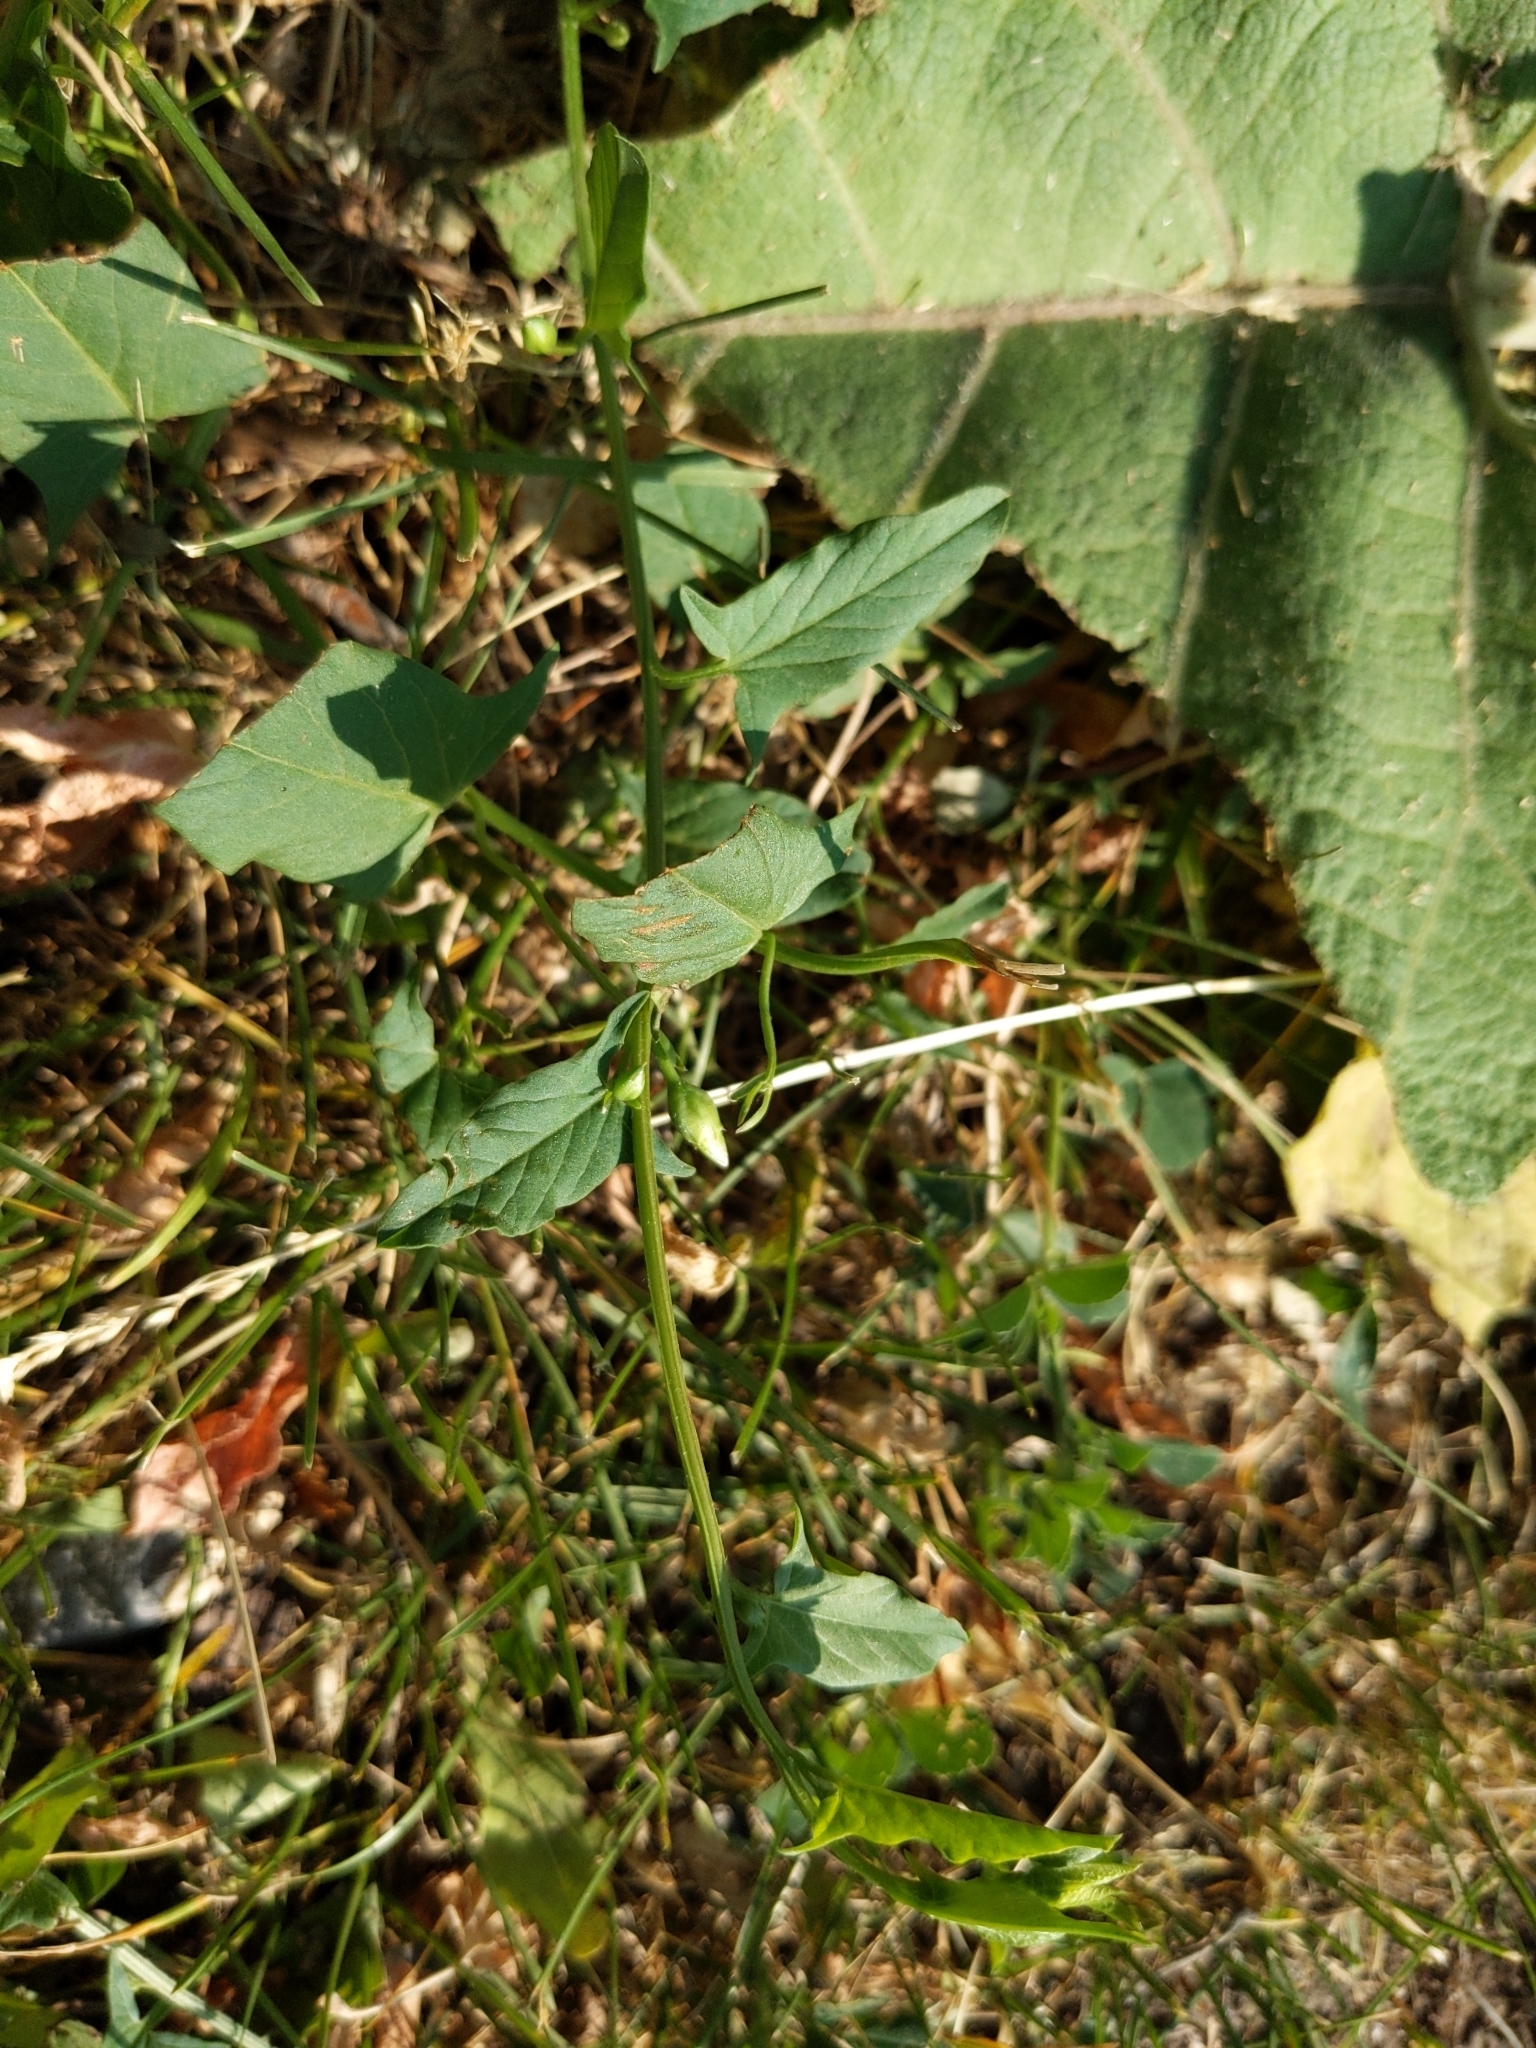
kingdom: Plantae
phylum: Tracheophyta
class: Magnoliopsida
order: Solanales
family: Convolvulaceae
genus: Convolvulus
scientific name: Convolvulus arvensis
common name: Field bindweed
